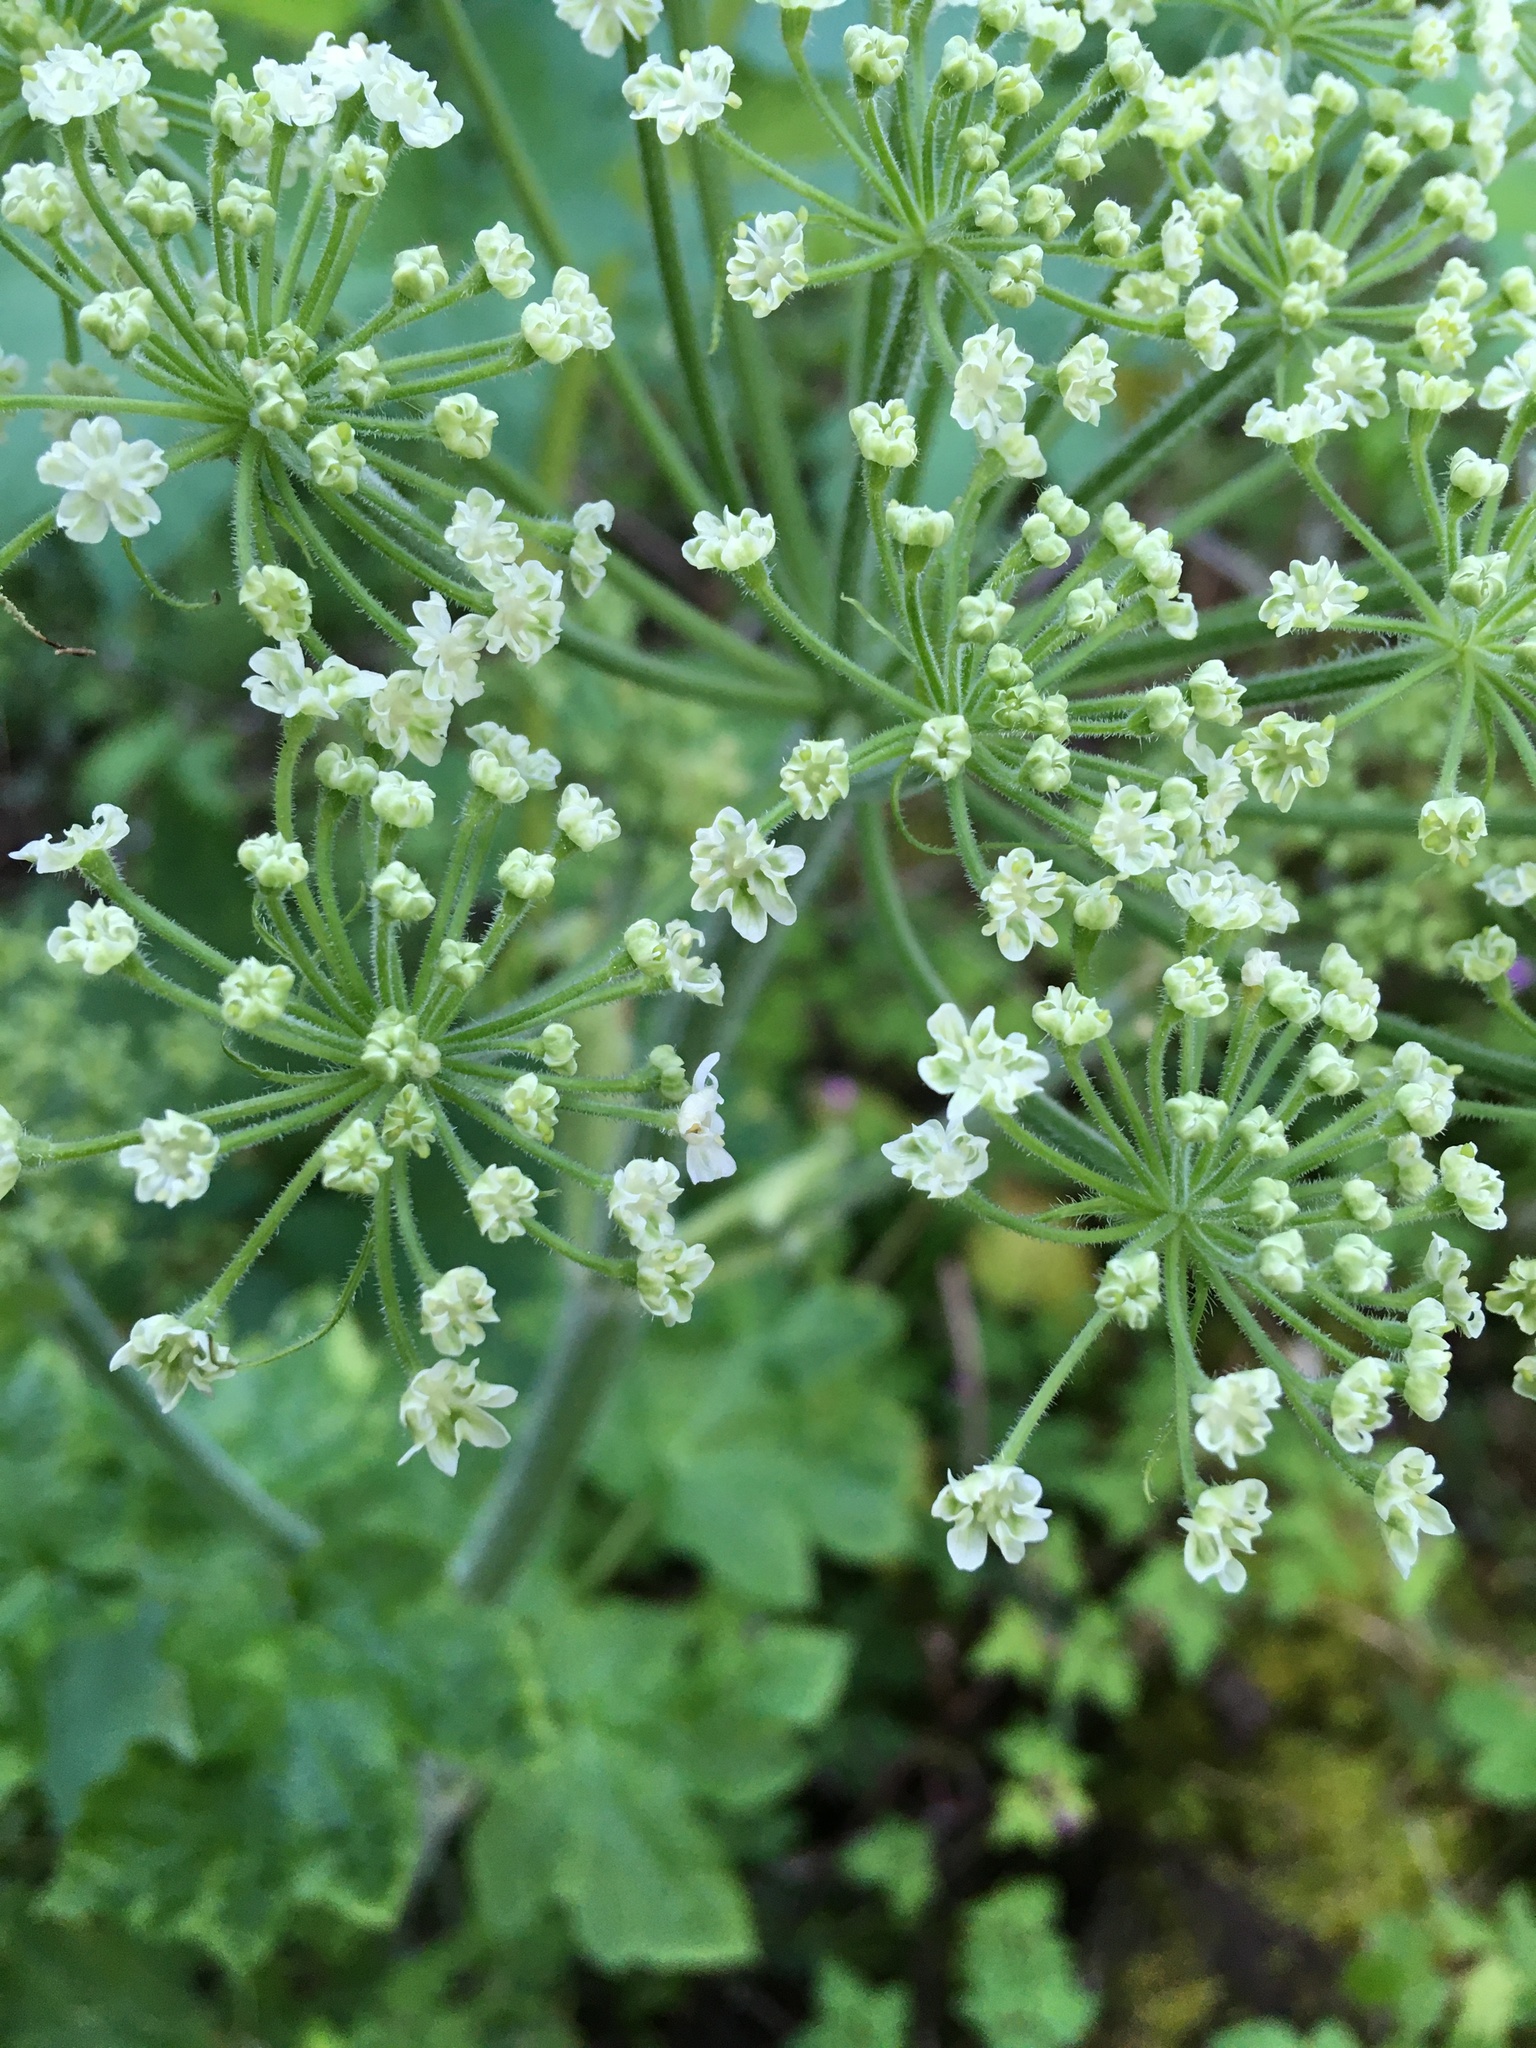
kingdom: Plantae
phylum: Tracheophyta
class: Magnoliopsida
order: Apiales
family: Apiaceae
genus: Heracleum
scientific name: Heracleum maximum
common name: American cow parsnip
